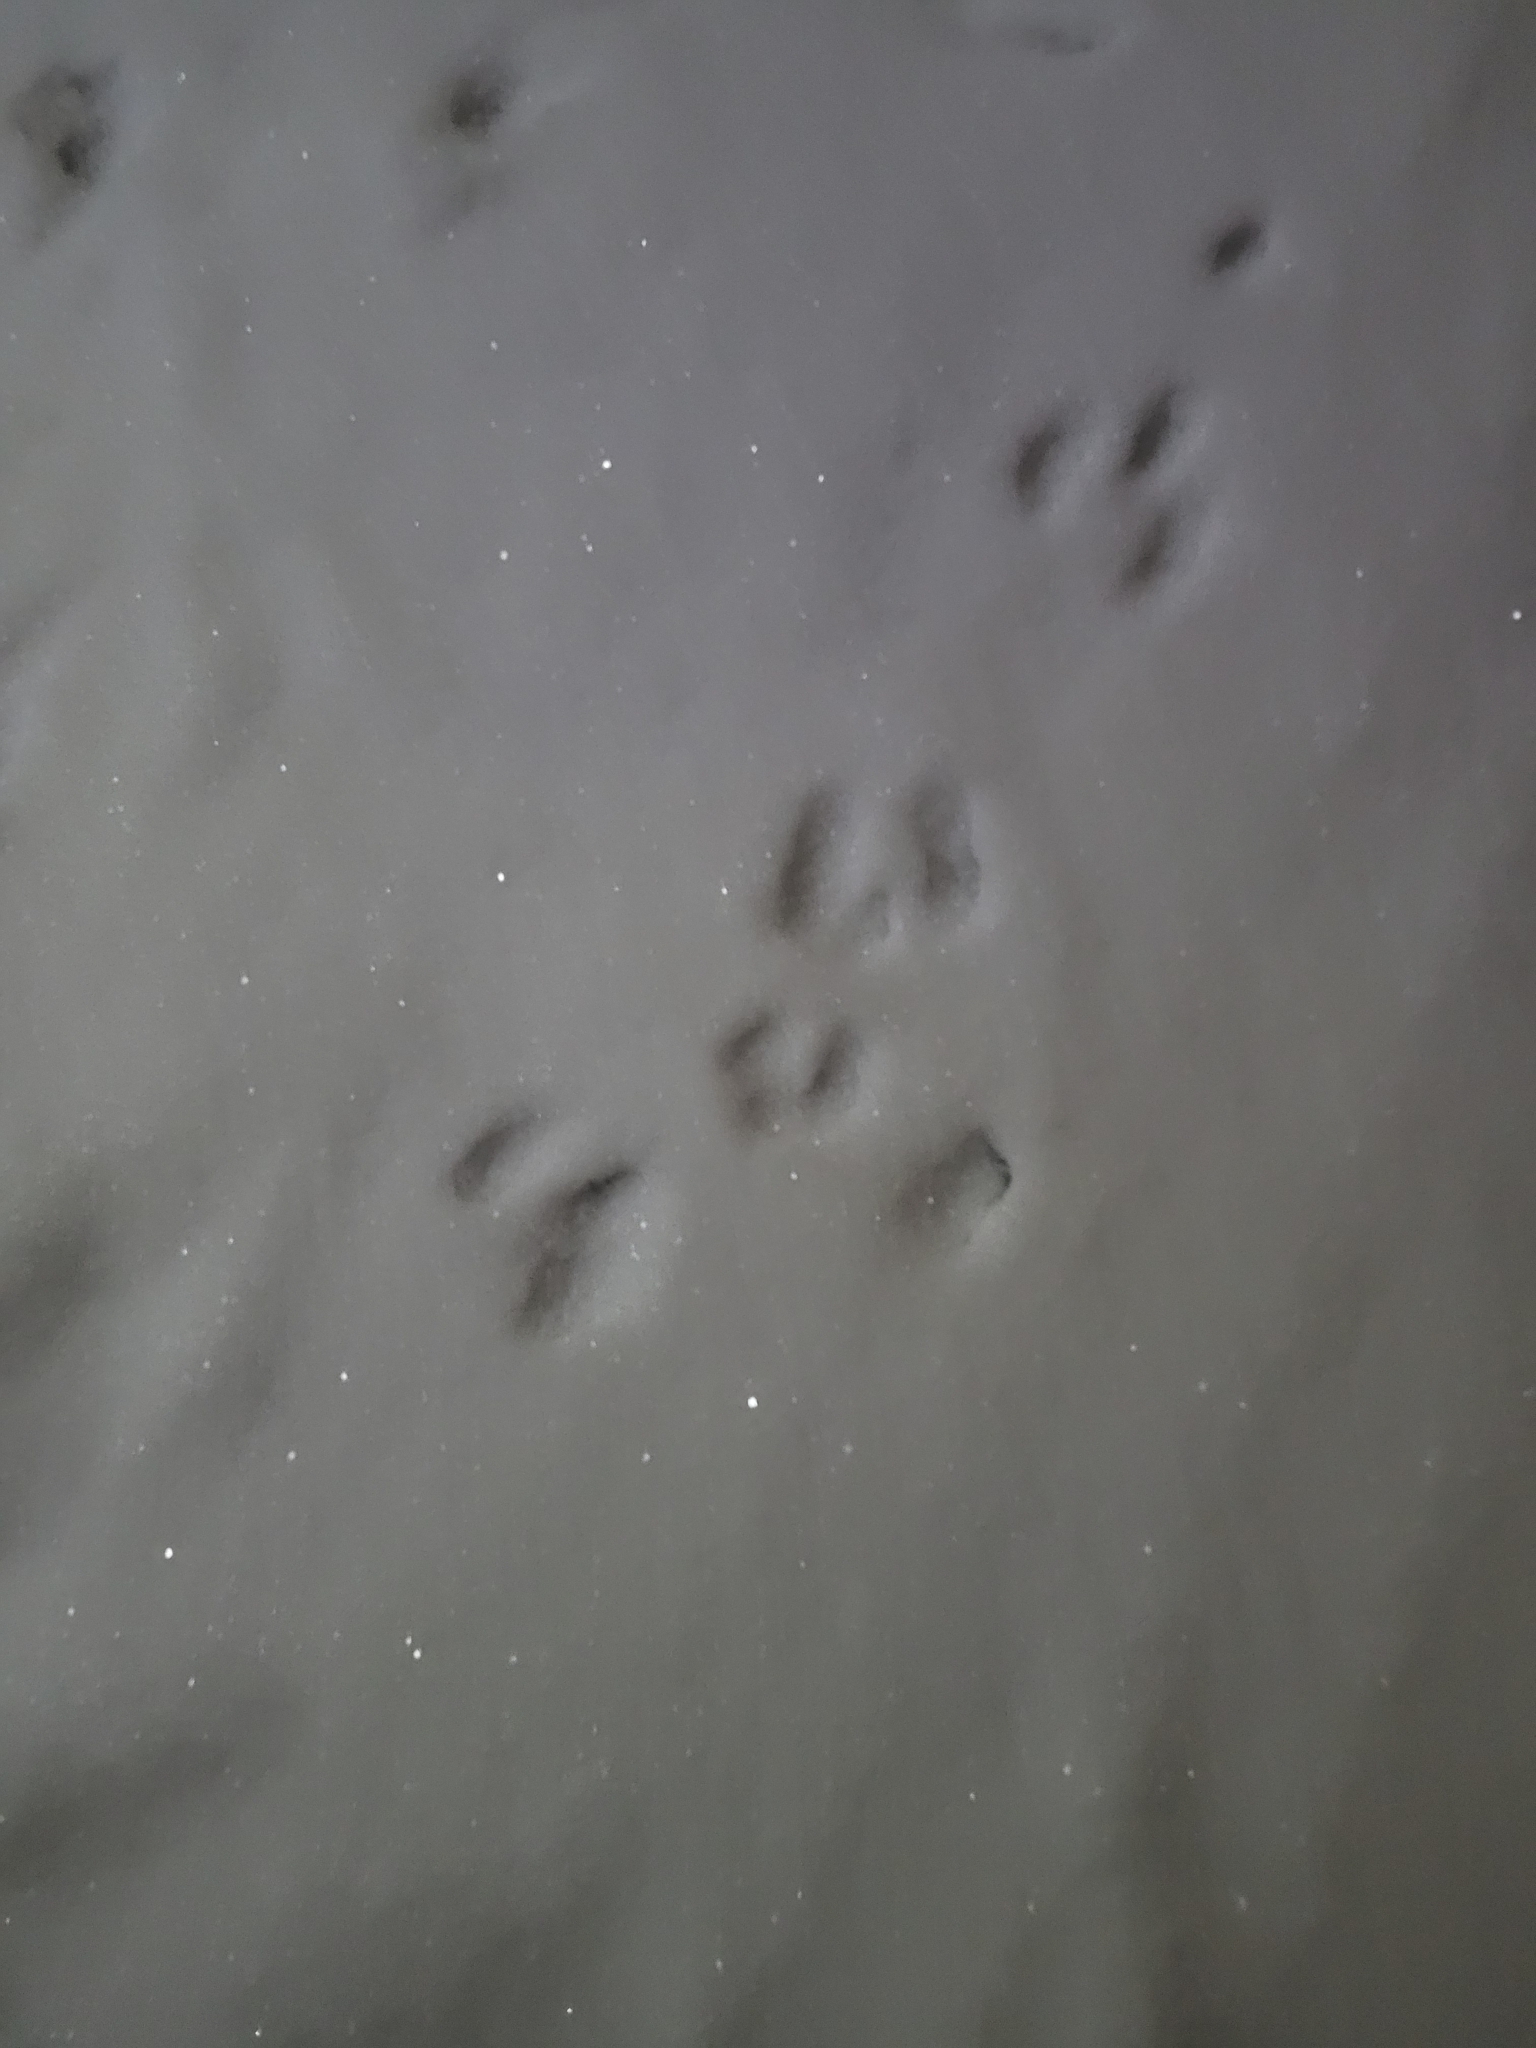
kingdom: Animalia
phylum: Chordata
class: Mammalia
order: Lagomorpha
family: Leporidae
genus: Sylvilagus
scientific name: Sylvilagus floridanus
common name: Eastern cottontail
